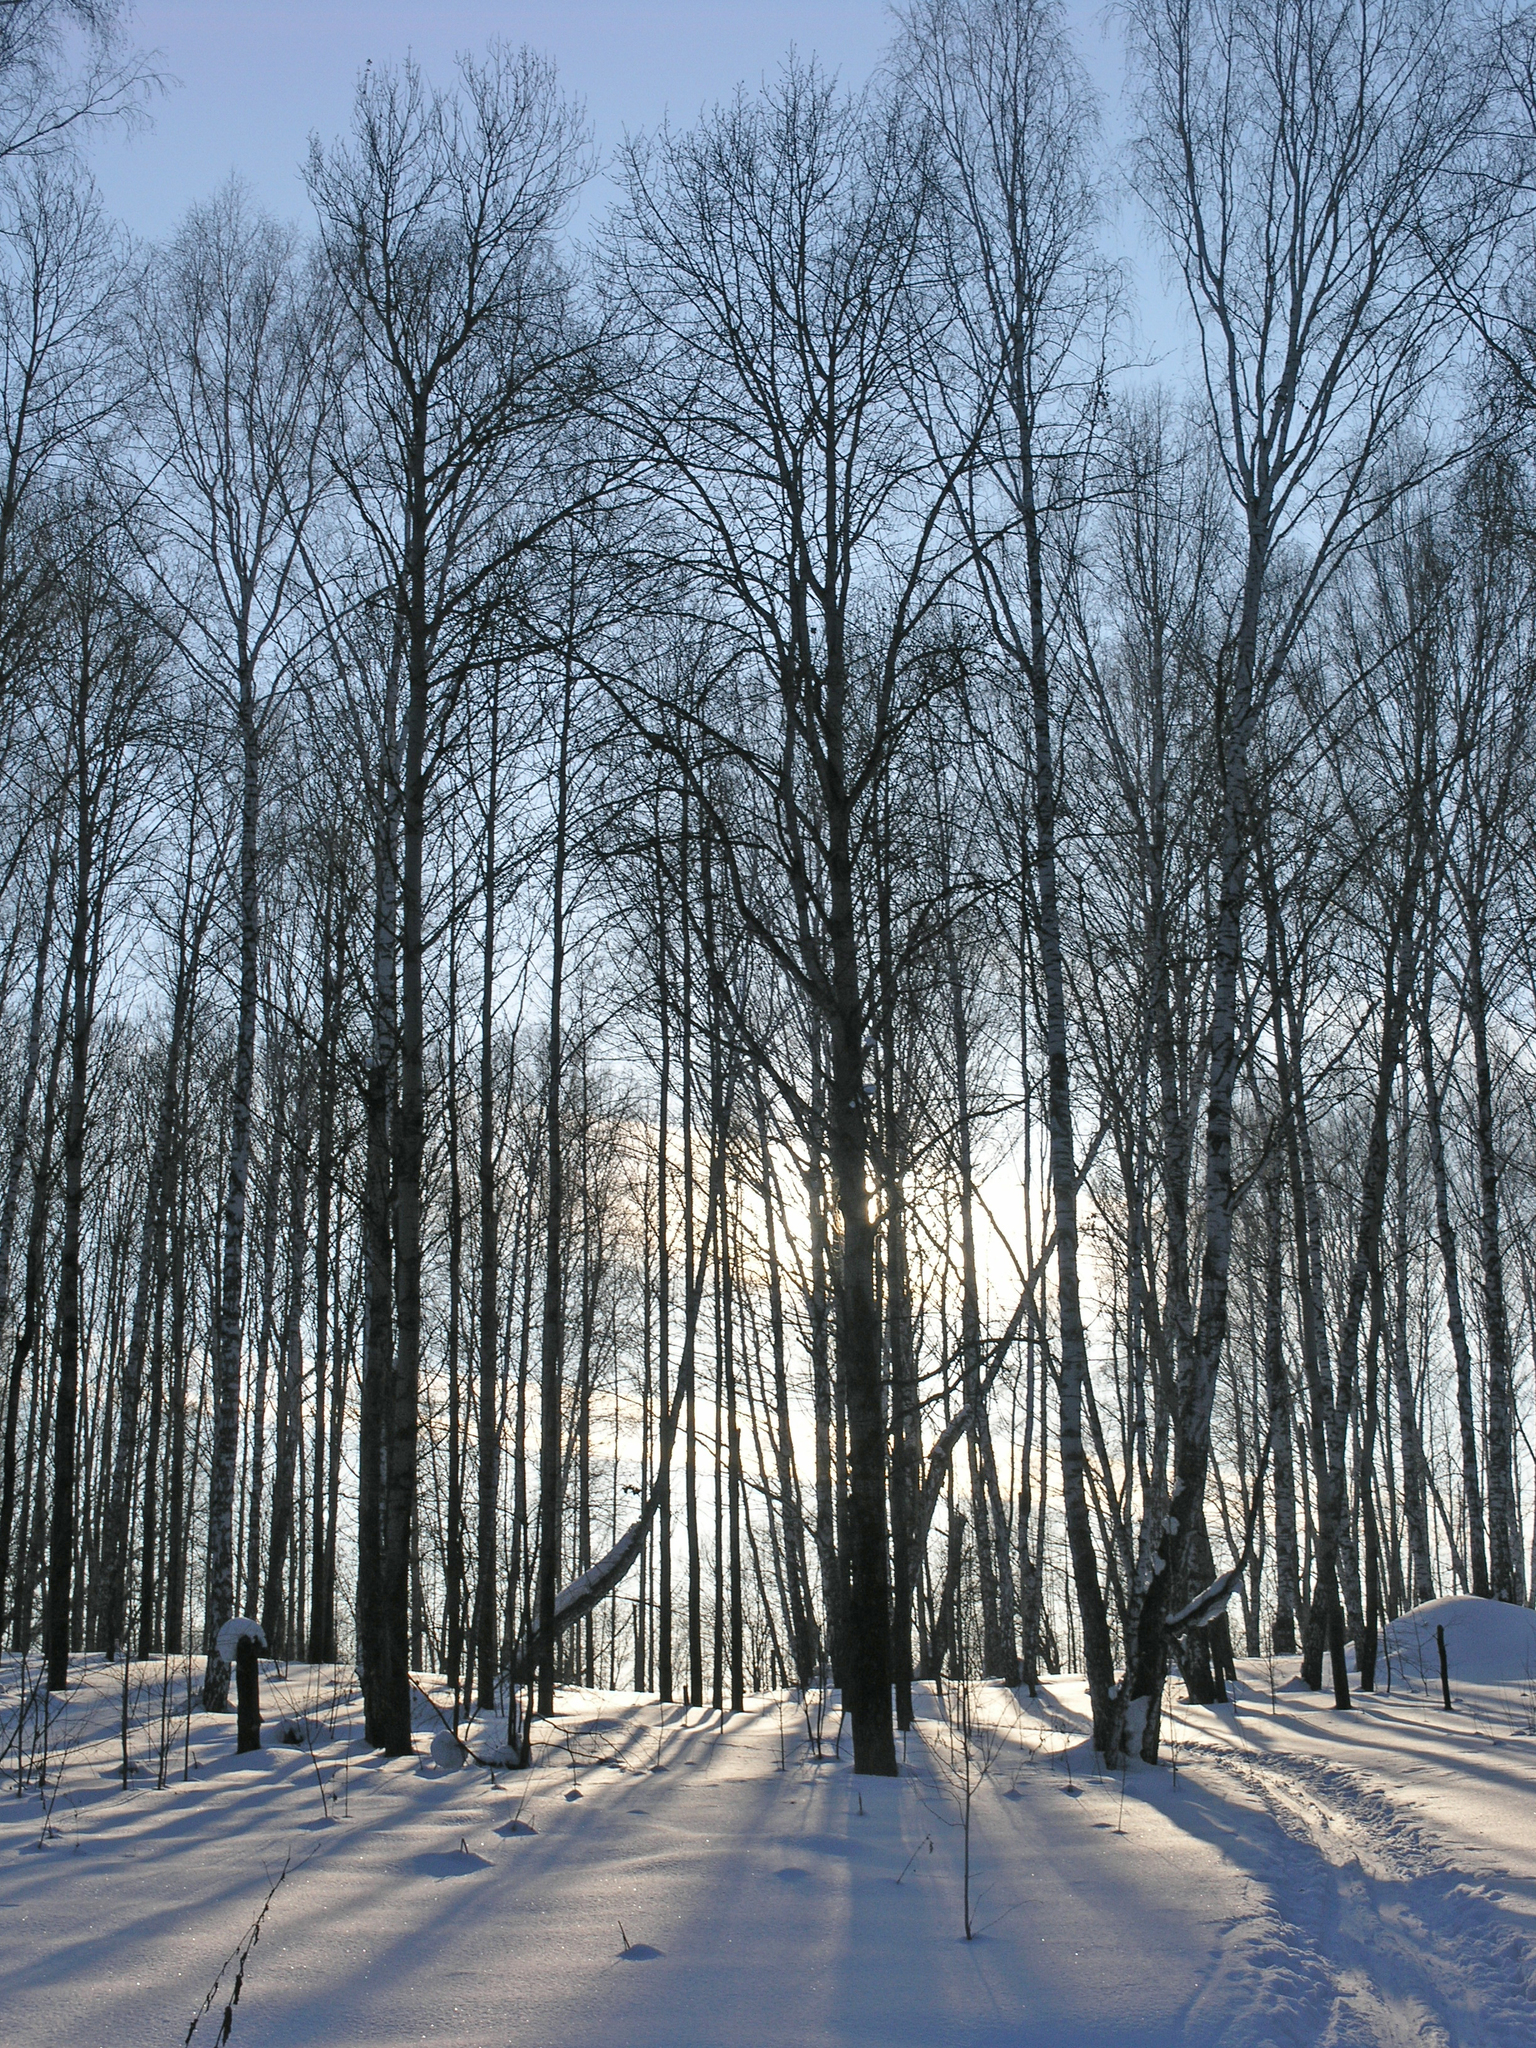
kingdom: Plantae
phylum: Tracheophyta
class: Magnoliopsida
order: Malpighiales
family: Salicaceae
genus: Populus
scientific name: Populus tremula
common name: European aspen
